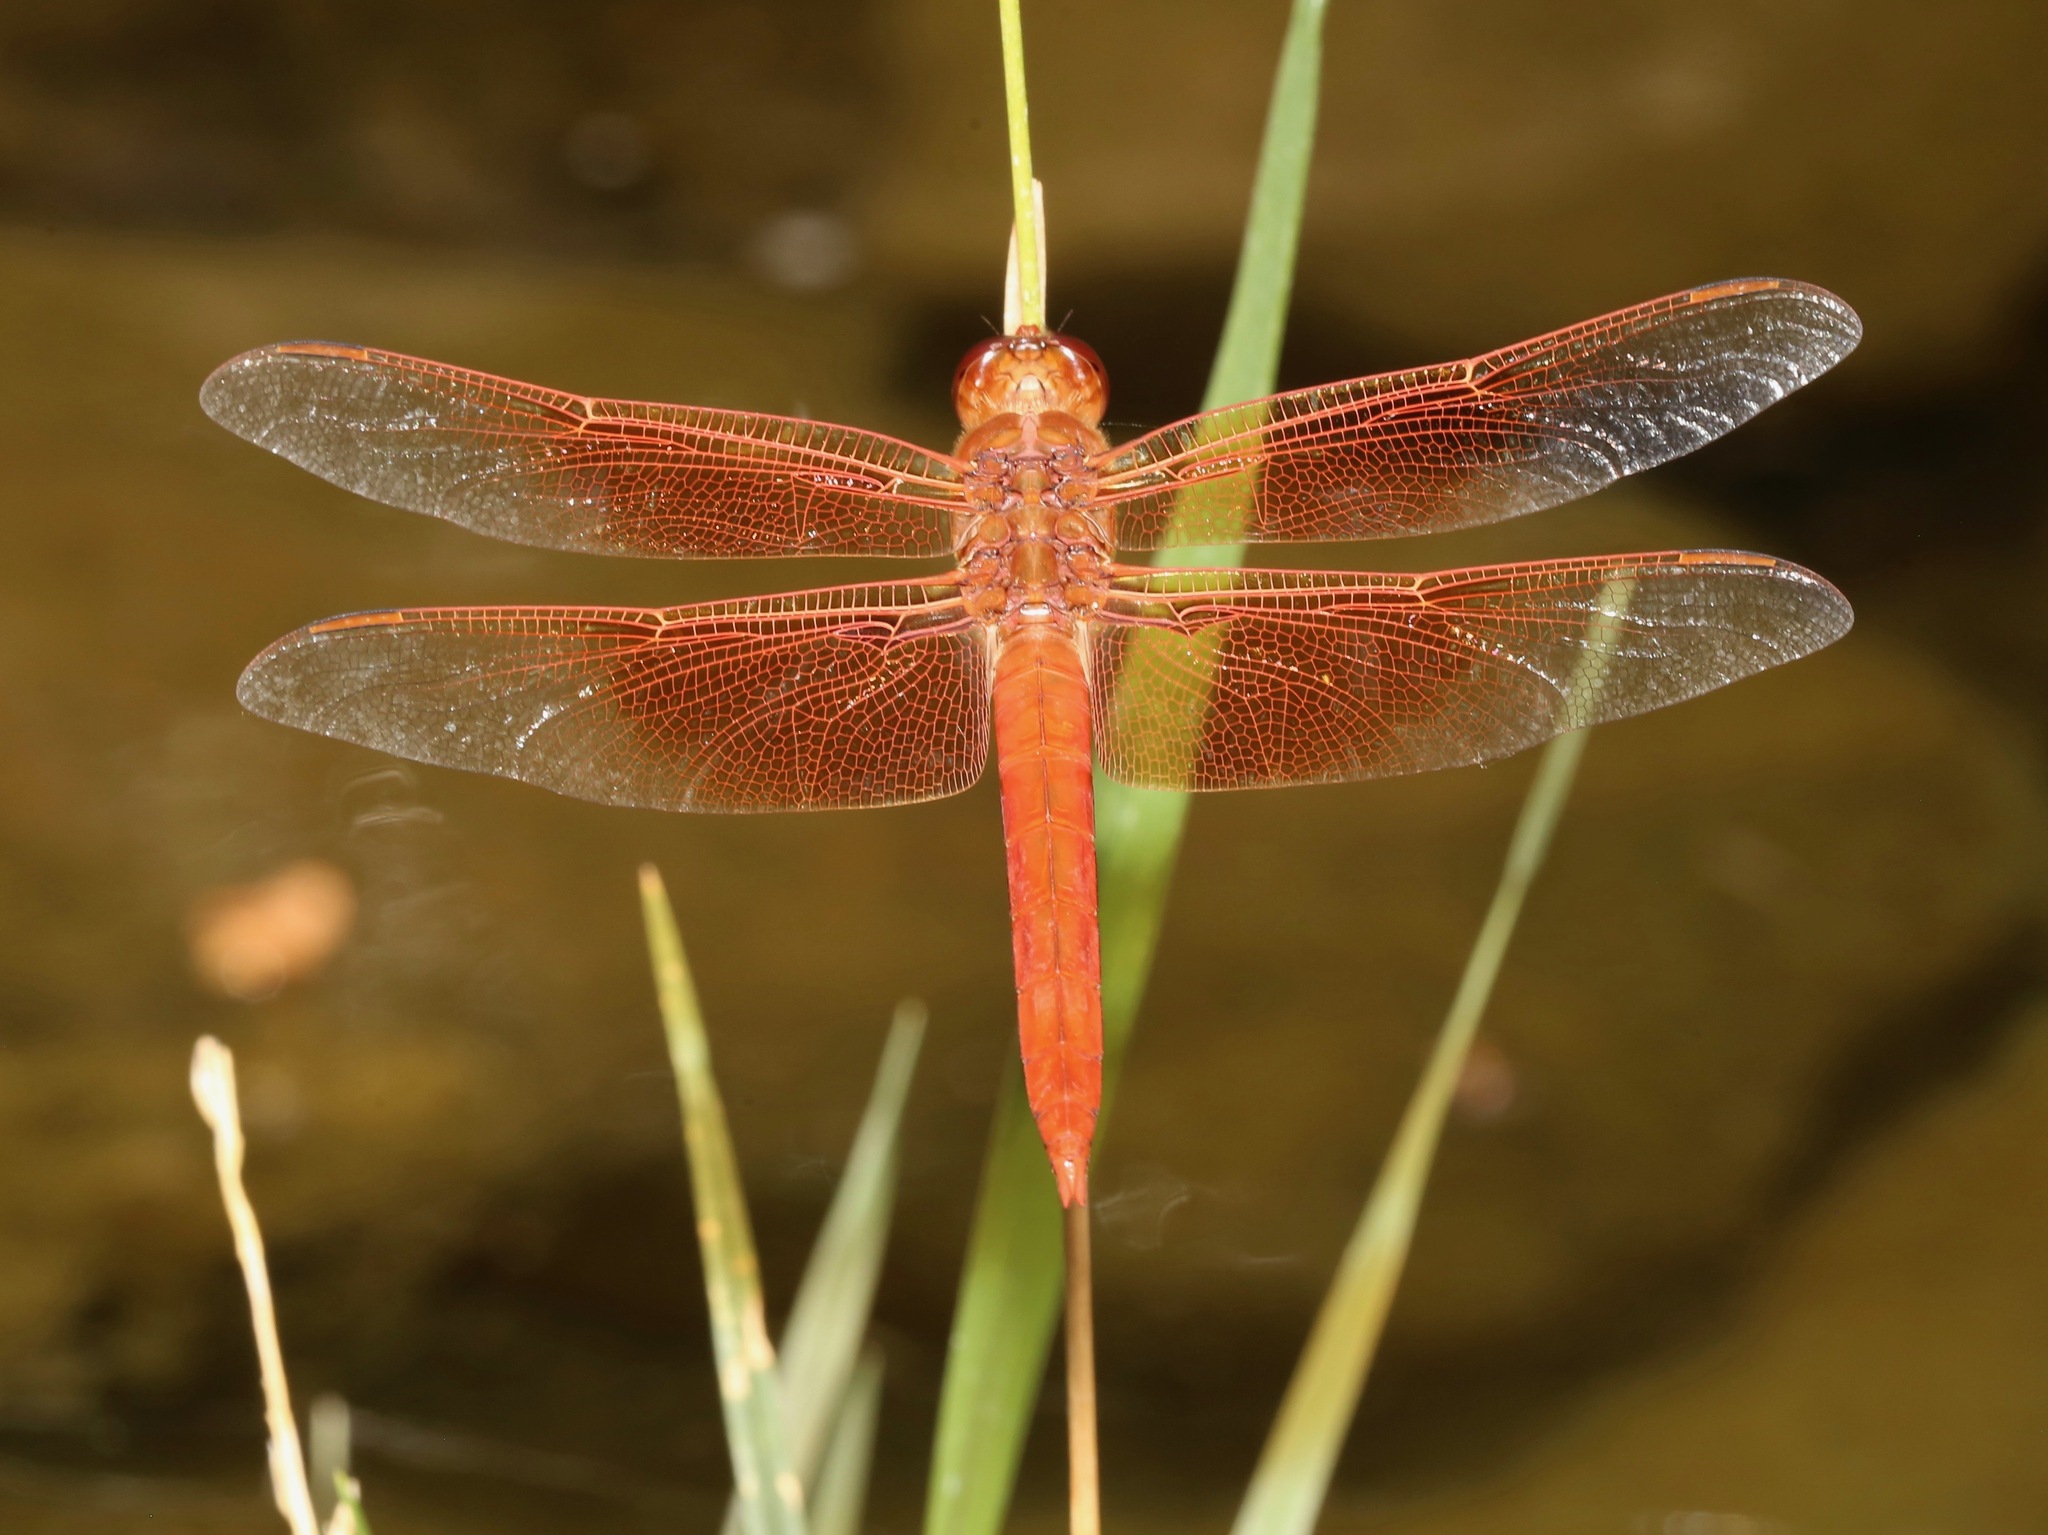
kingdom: Animalia
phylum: Arthropoda
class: Insecta
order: Odonata
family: Libellulidae
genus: Libellula
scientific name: Libellula saturata
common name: Flame skimmer
